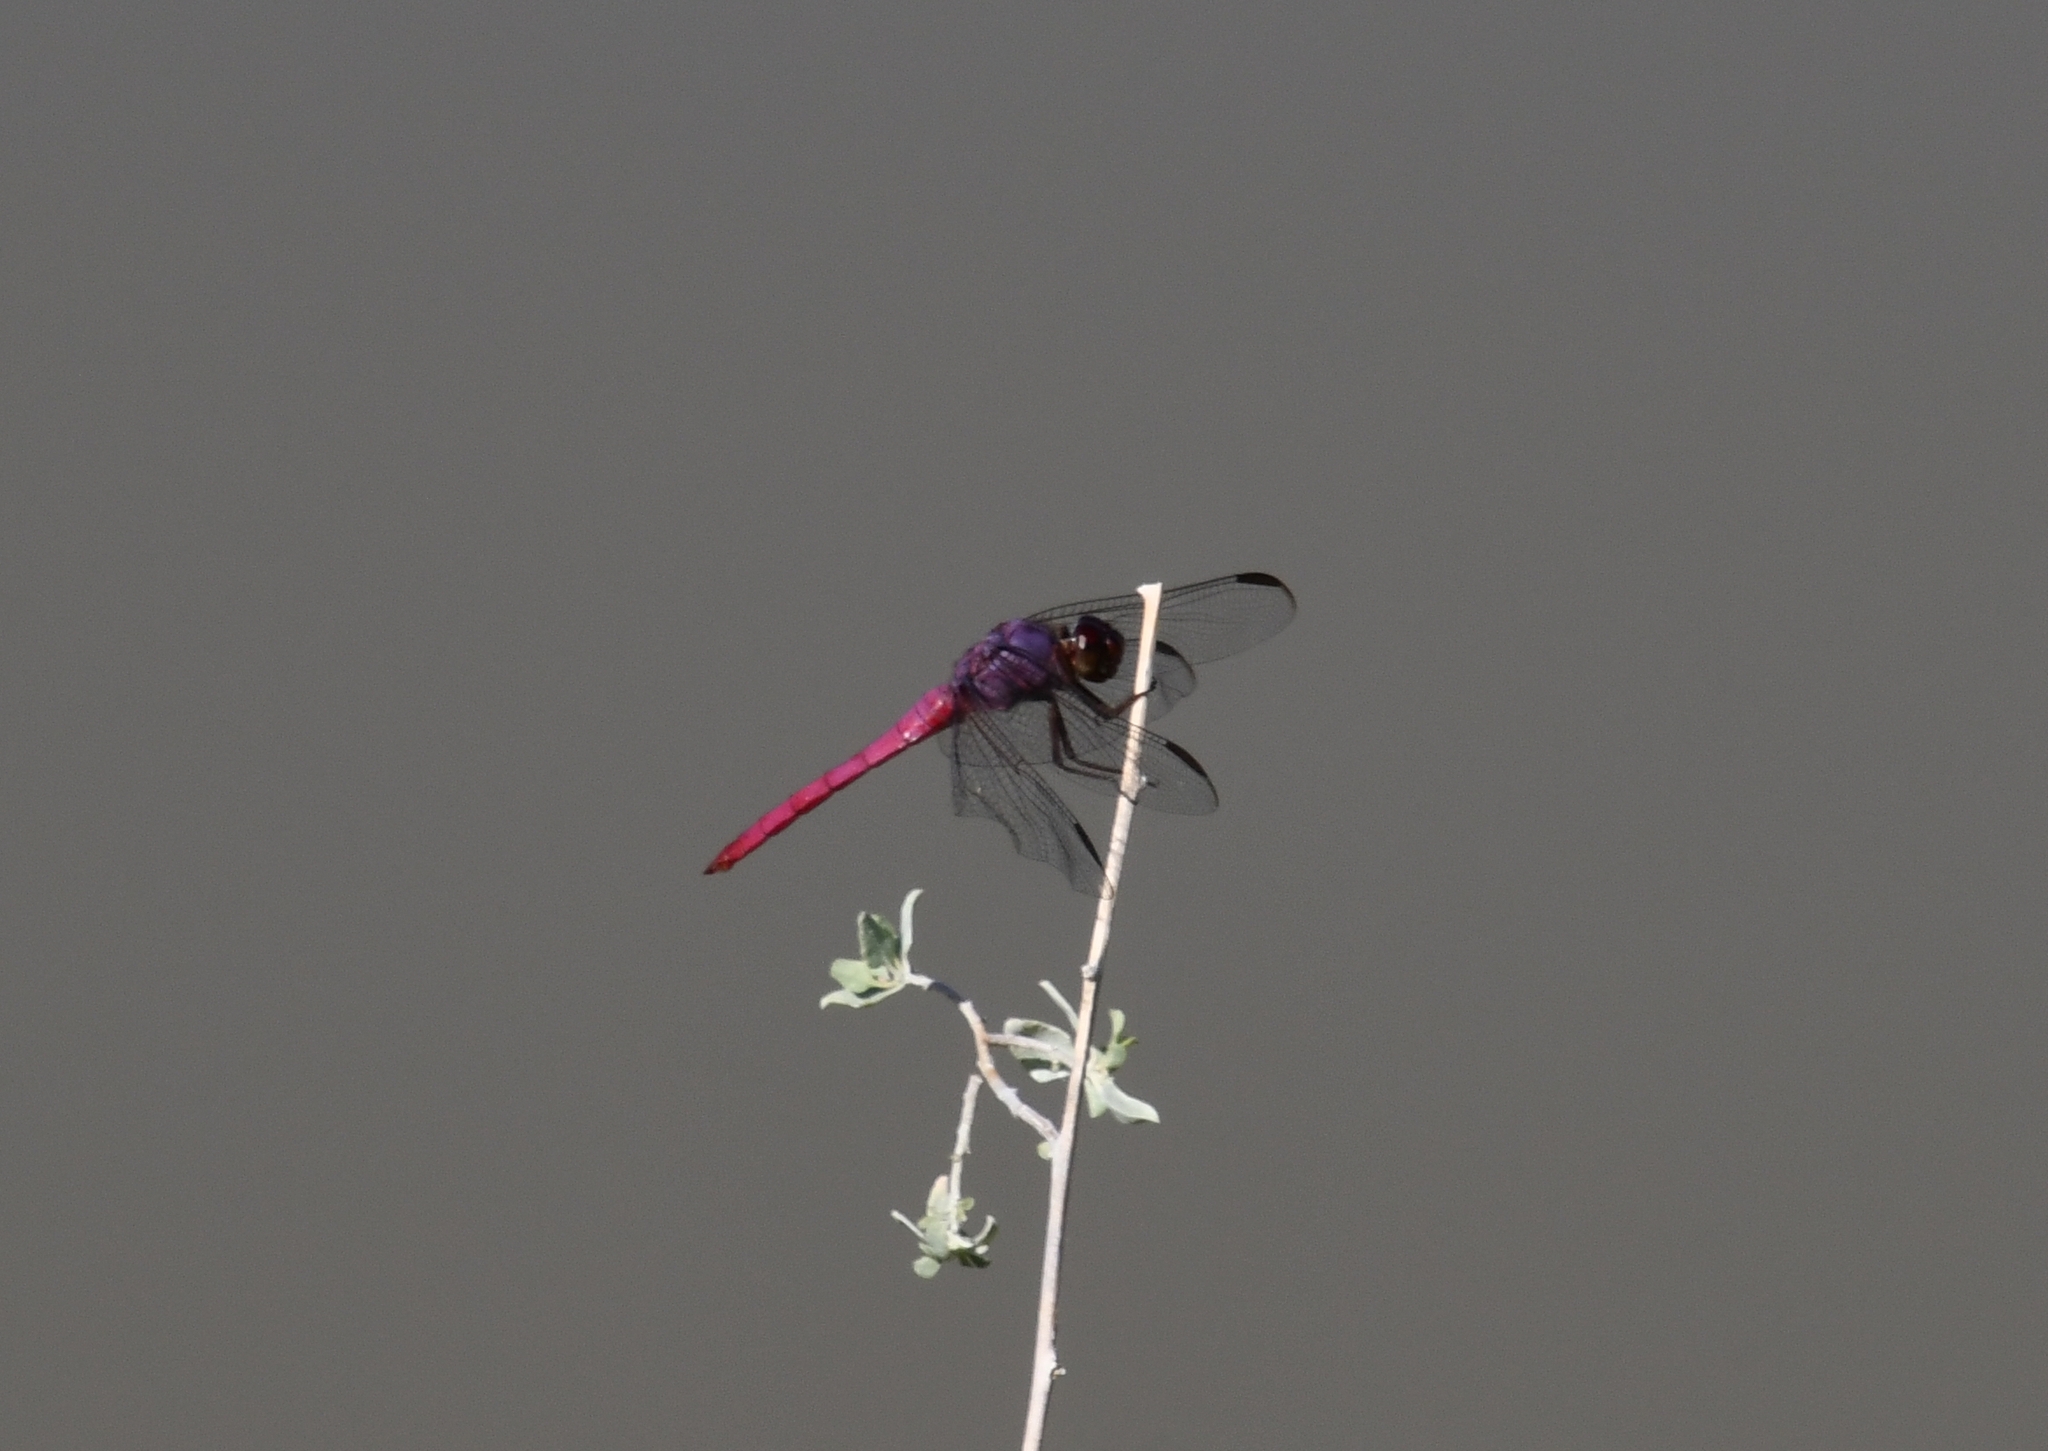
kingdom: Animalia
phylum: Arthropoda
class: Insecta
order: Odonata
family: Libellulidae
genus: Orthemis
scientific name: Orthemis ferruginea
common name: Roseate skimmer
